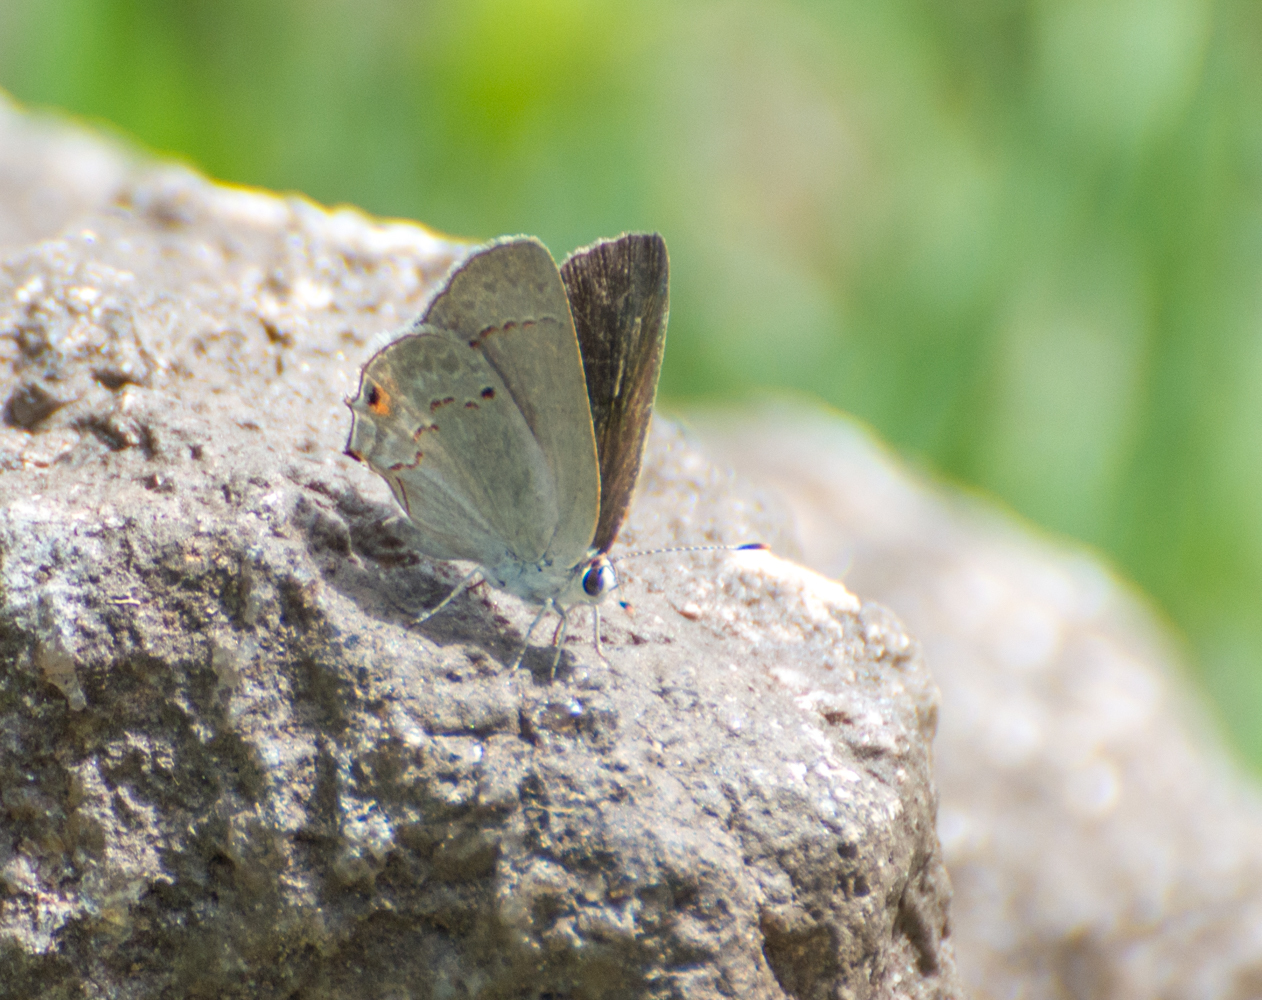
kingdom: Animalia
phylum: Arthropoda
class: Insecta
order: Lepidoptera
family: Lycaenidae
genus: Thecla
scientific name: Thecla rufofusca
